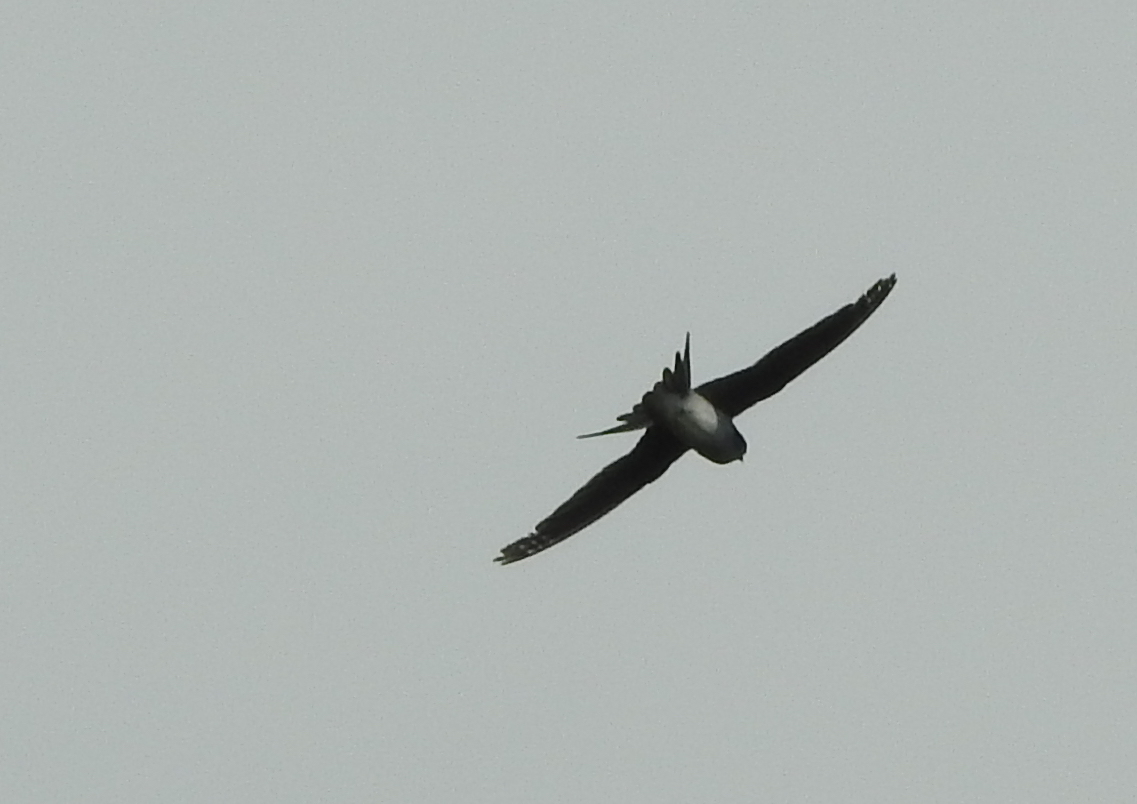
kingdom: Animalia
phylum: Chordata
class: Aves
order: Apodiformes
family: Hemiprocnidae
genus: Hemiprocne
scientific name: Hemiprocne longipennis
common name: Grey-rumped treeswift
